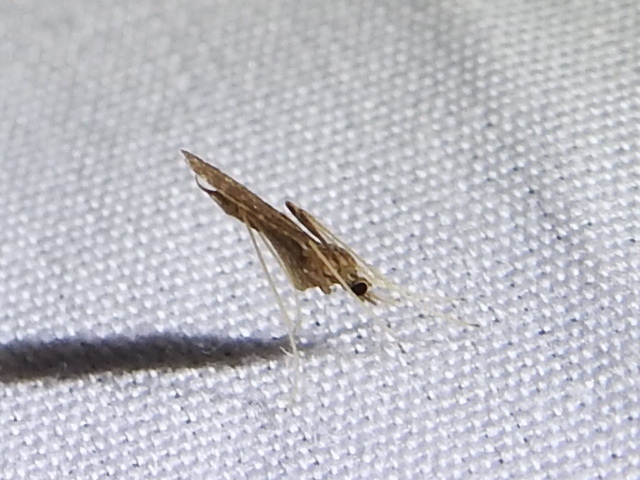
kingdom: Animalia
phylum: Arthropoda
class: Insecta
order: Diptera
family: Limoniidae
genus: Erioptera
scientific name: Erioptera tantilla
